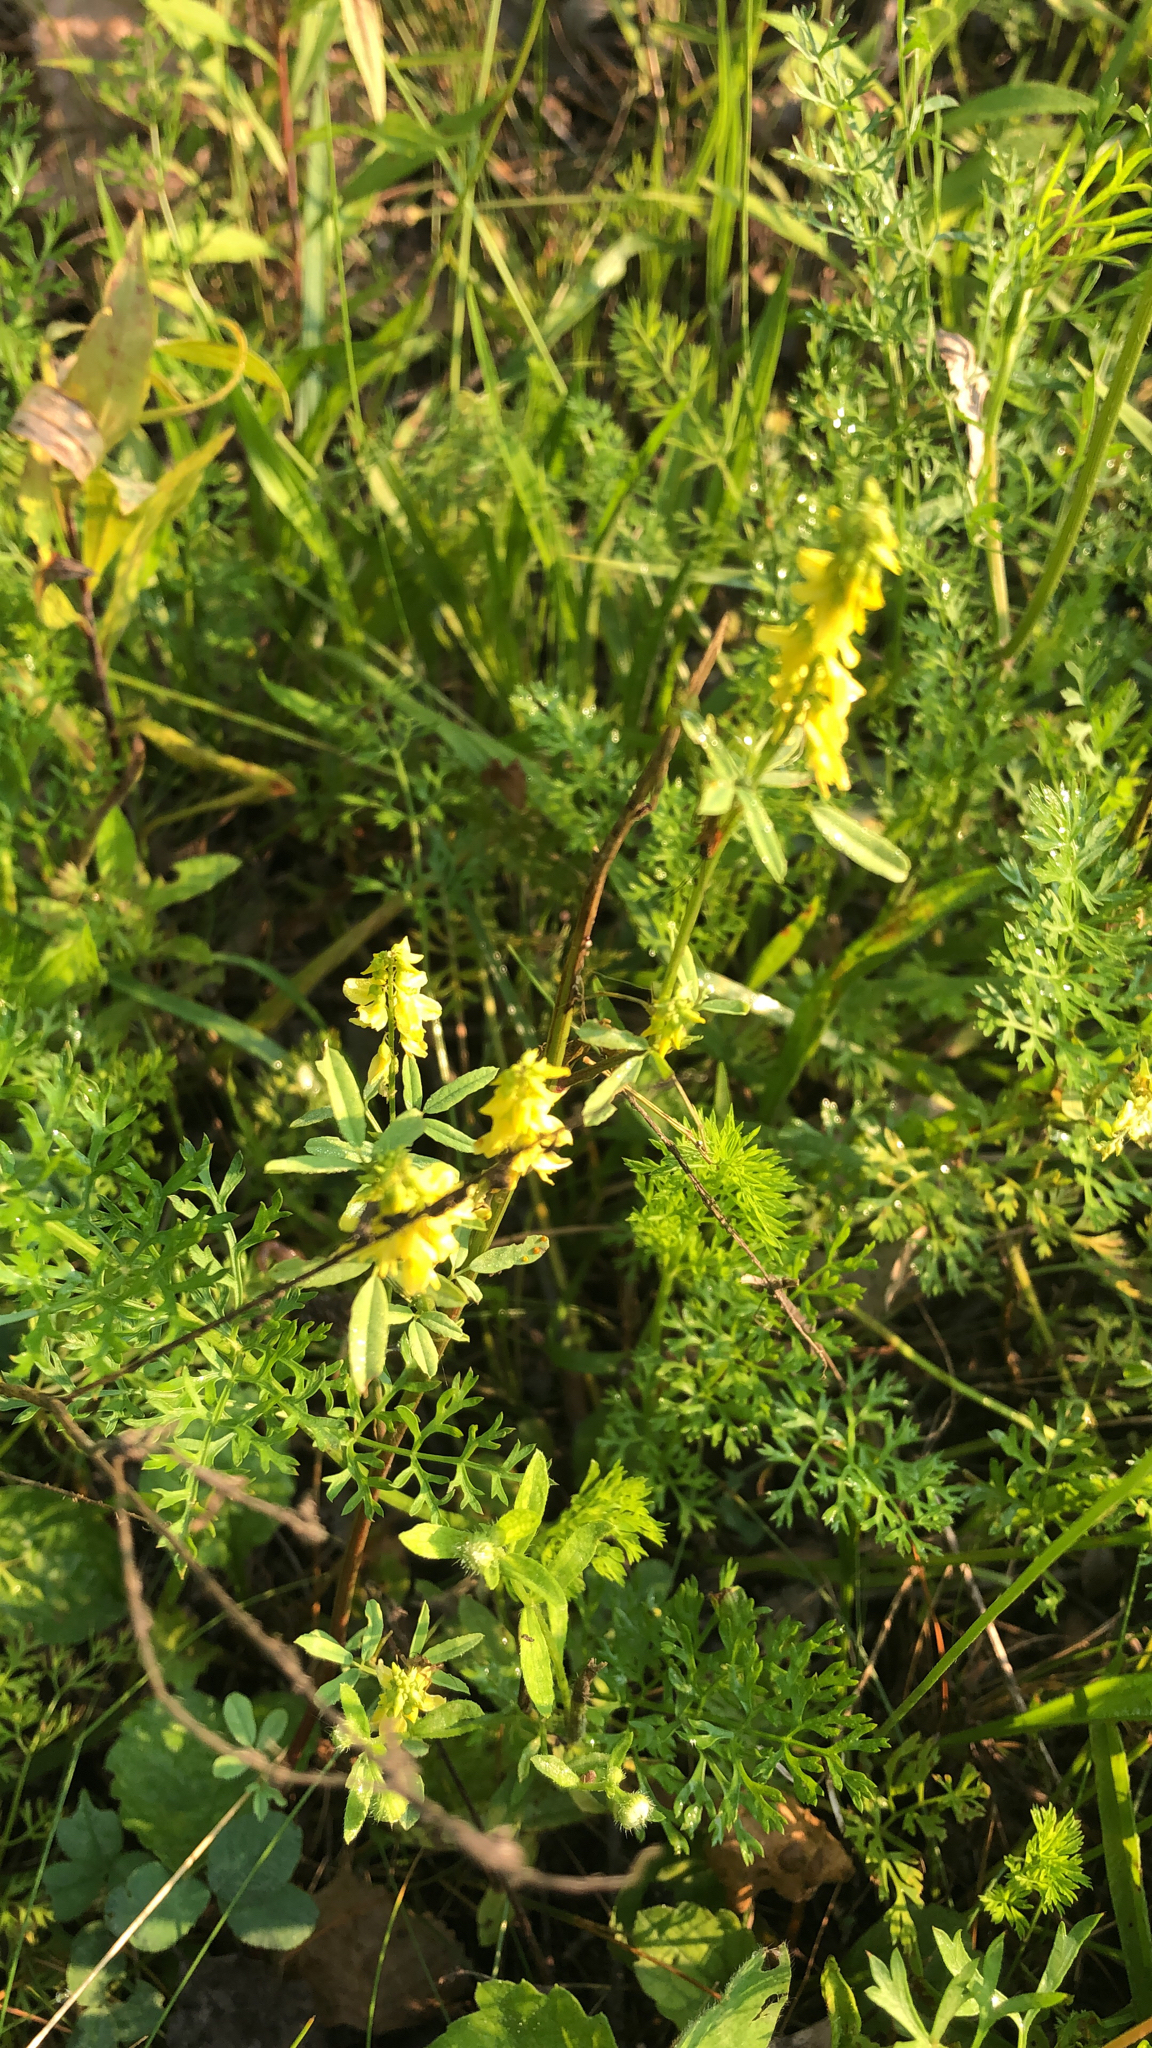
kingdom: Plantae
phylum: Tracheophyta
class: Magnoliopsida
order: Fabales
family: Fabaceae
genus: Melilotus
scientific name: Melilotus officinalis
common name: Sweetclover
